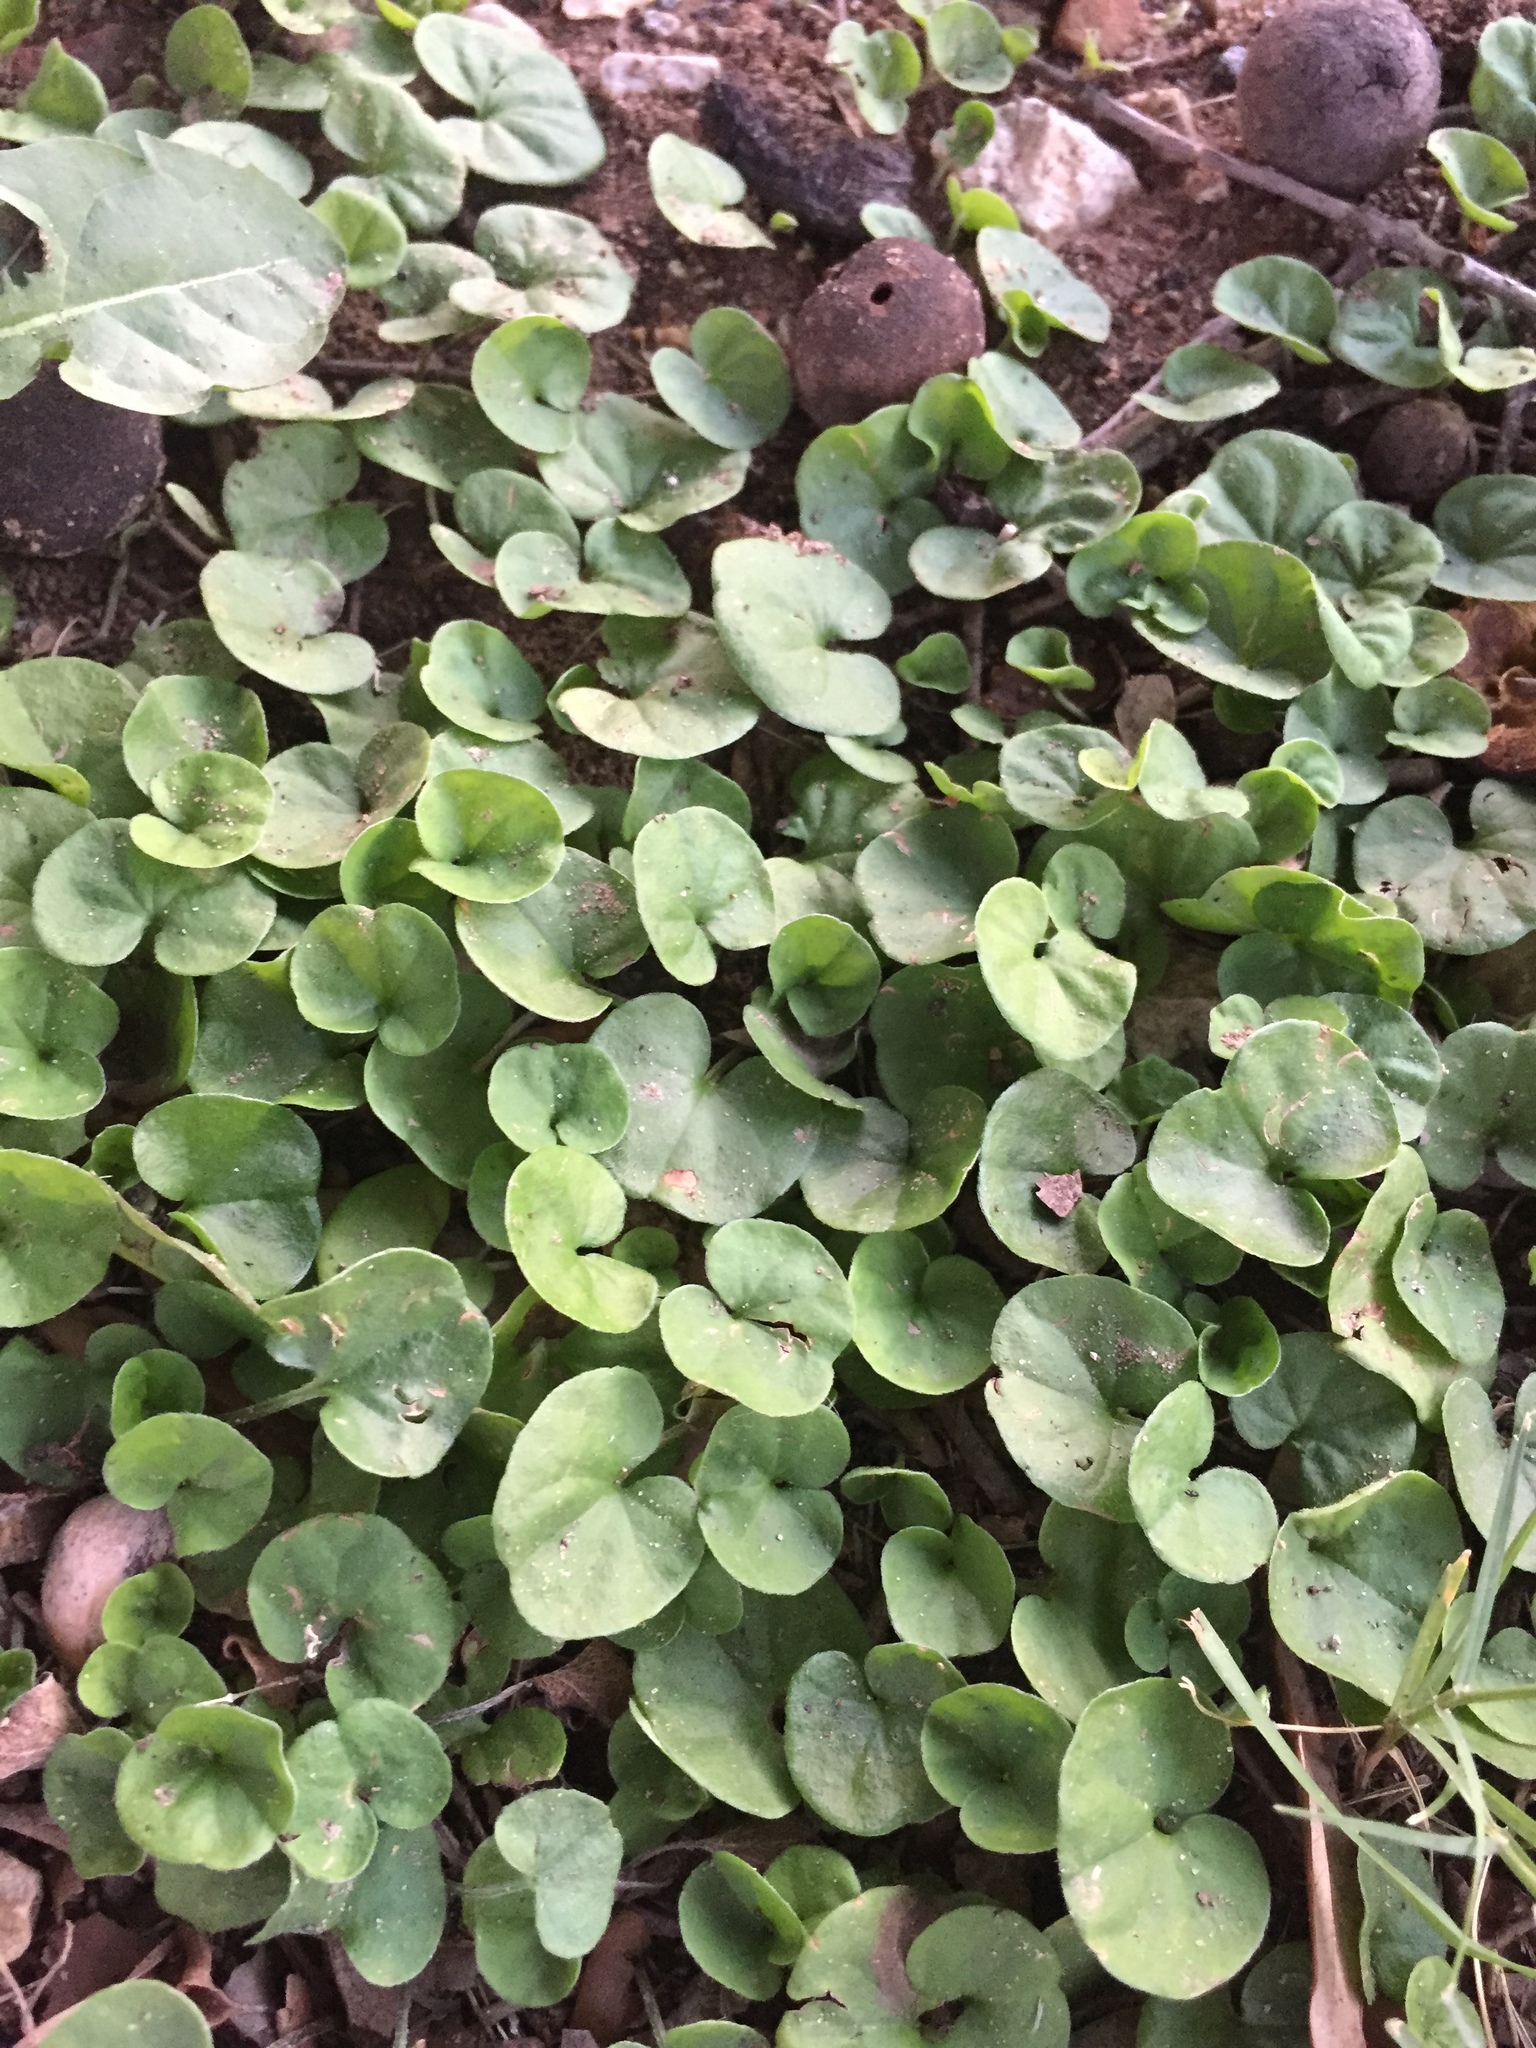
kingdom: Plantae
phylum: Tracheophyta
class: Magnoliopsida
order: Solanales
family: Convolvulaceae
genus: Dichondra
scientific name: Dichondra carolinensis
